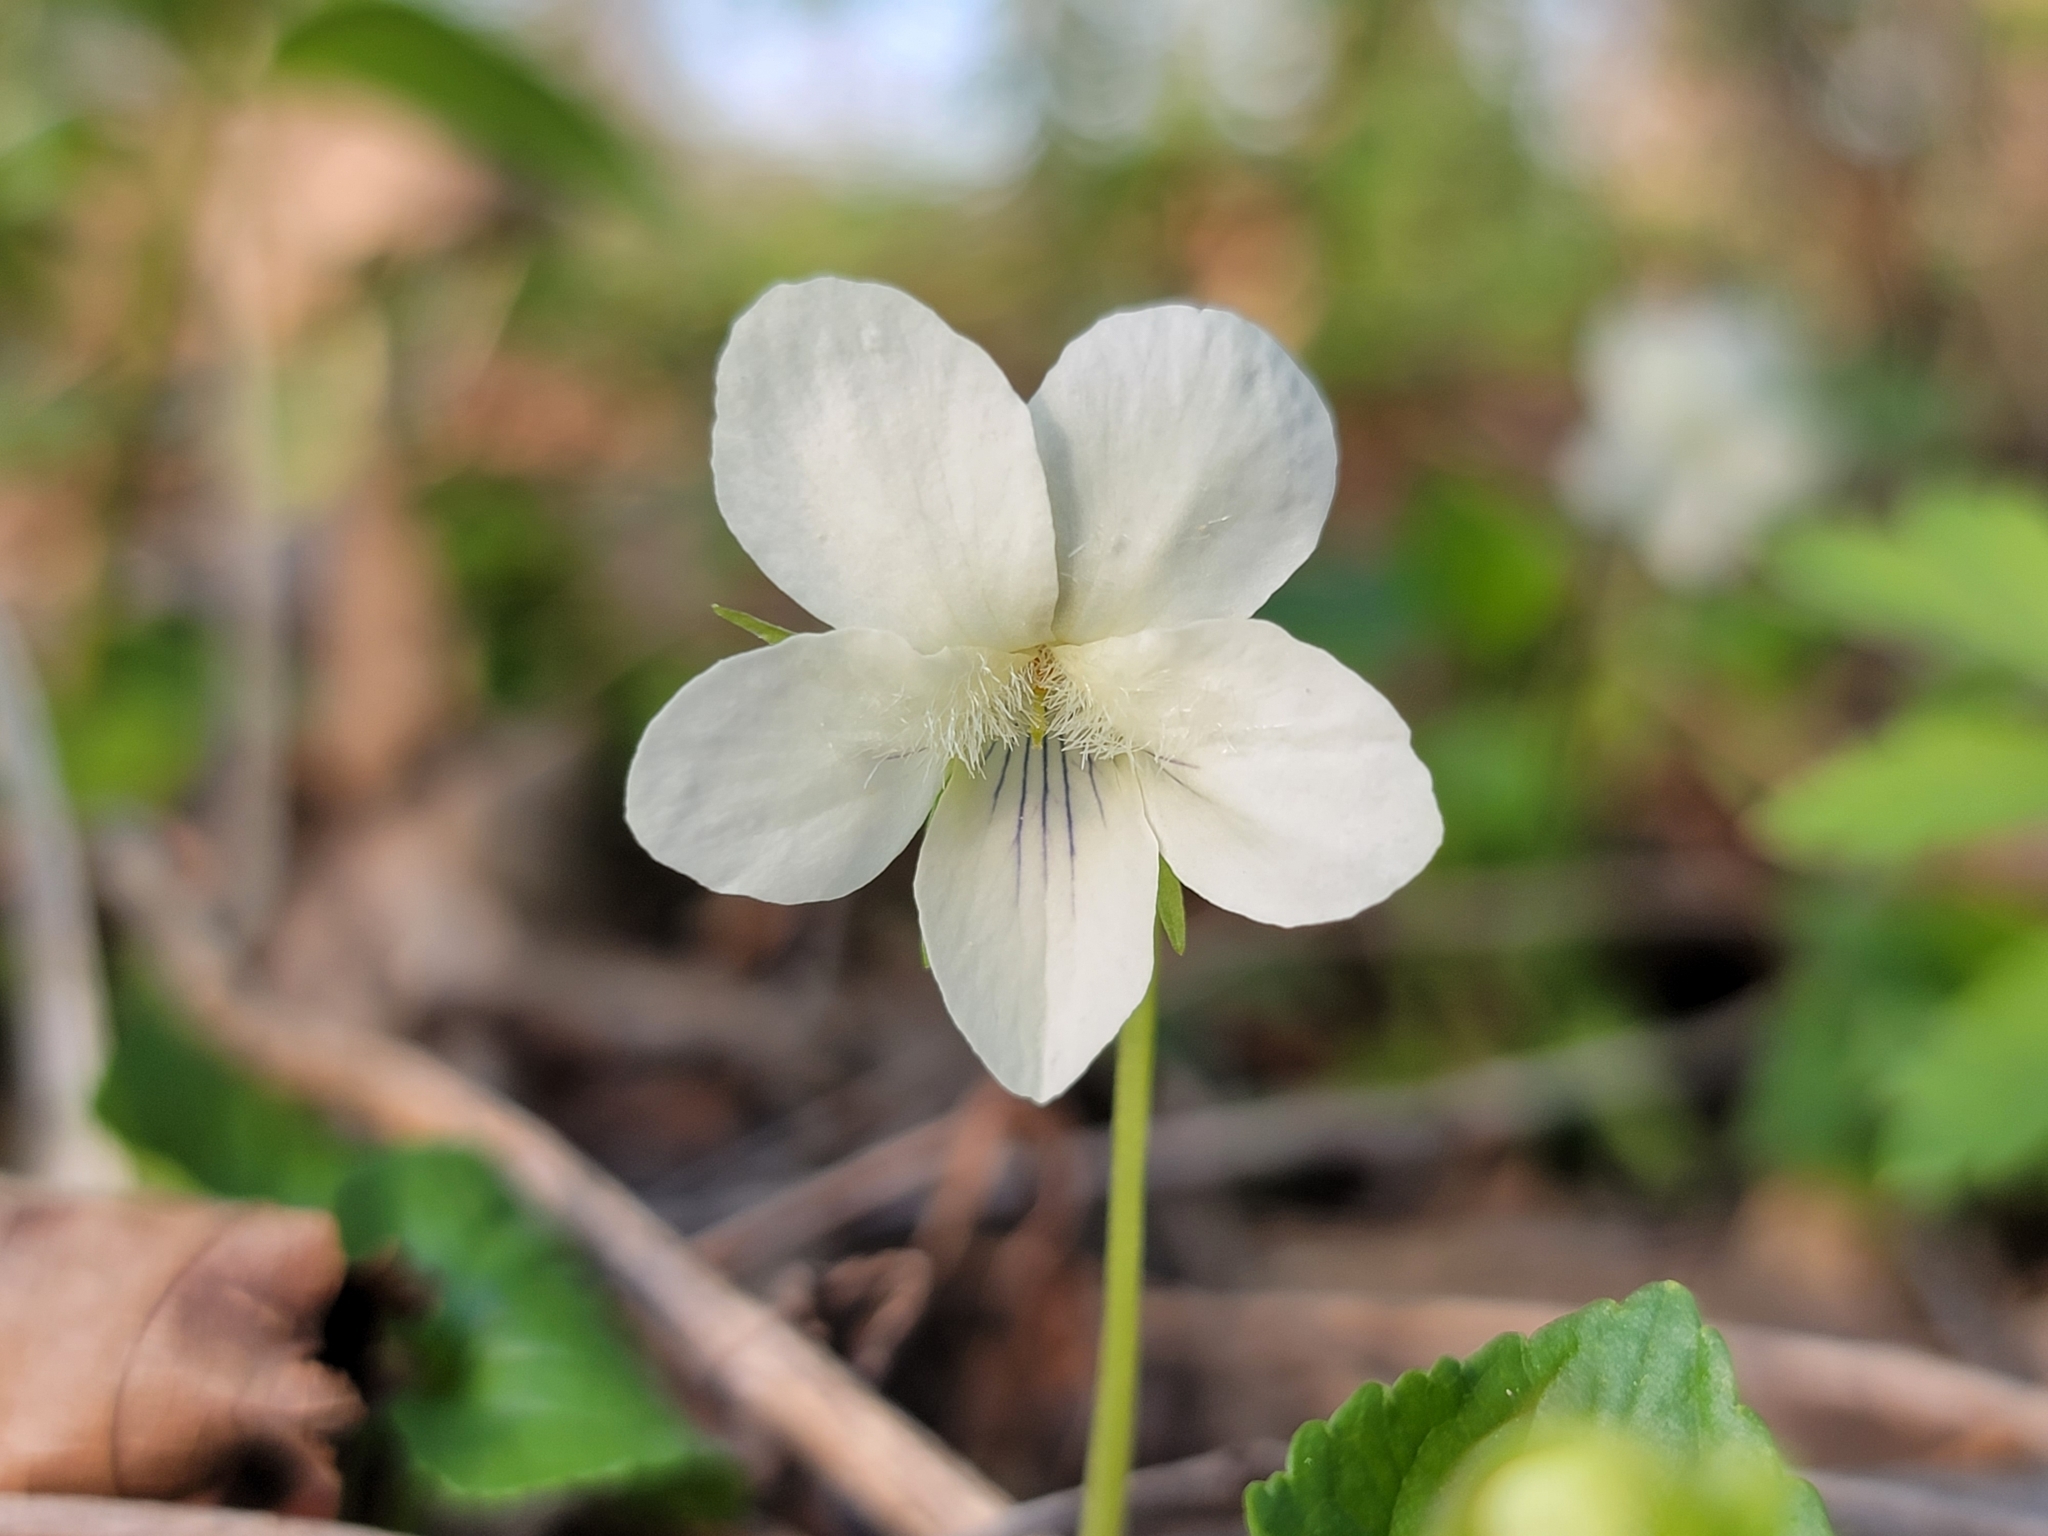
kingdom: Plantae
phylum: Tracheophyta
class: Magnoliopsida
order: Malpighiales
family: Violaceae
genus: Viola
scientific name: Viola striata
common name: Cream violet
